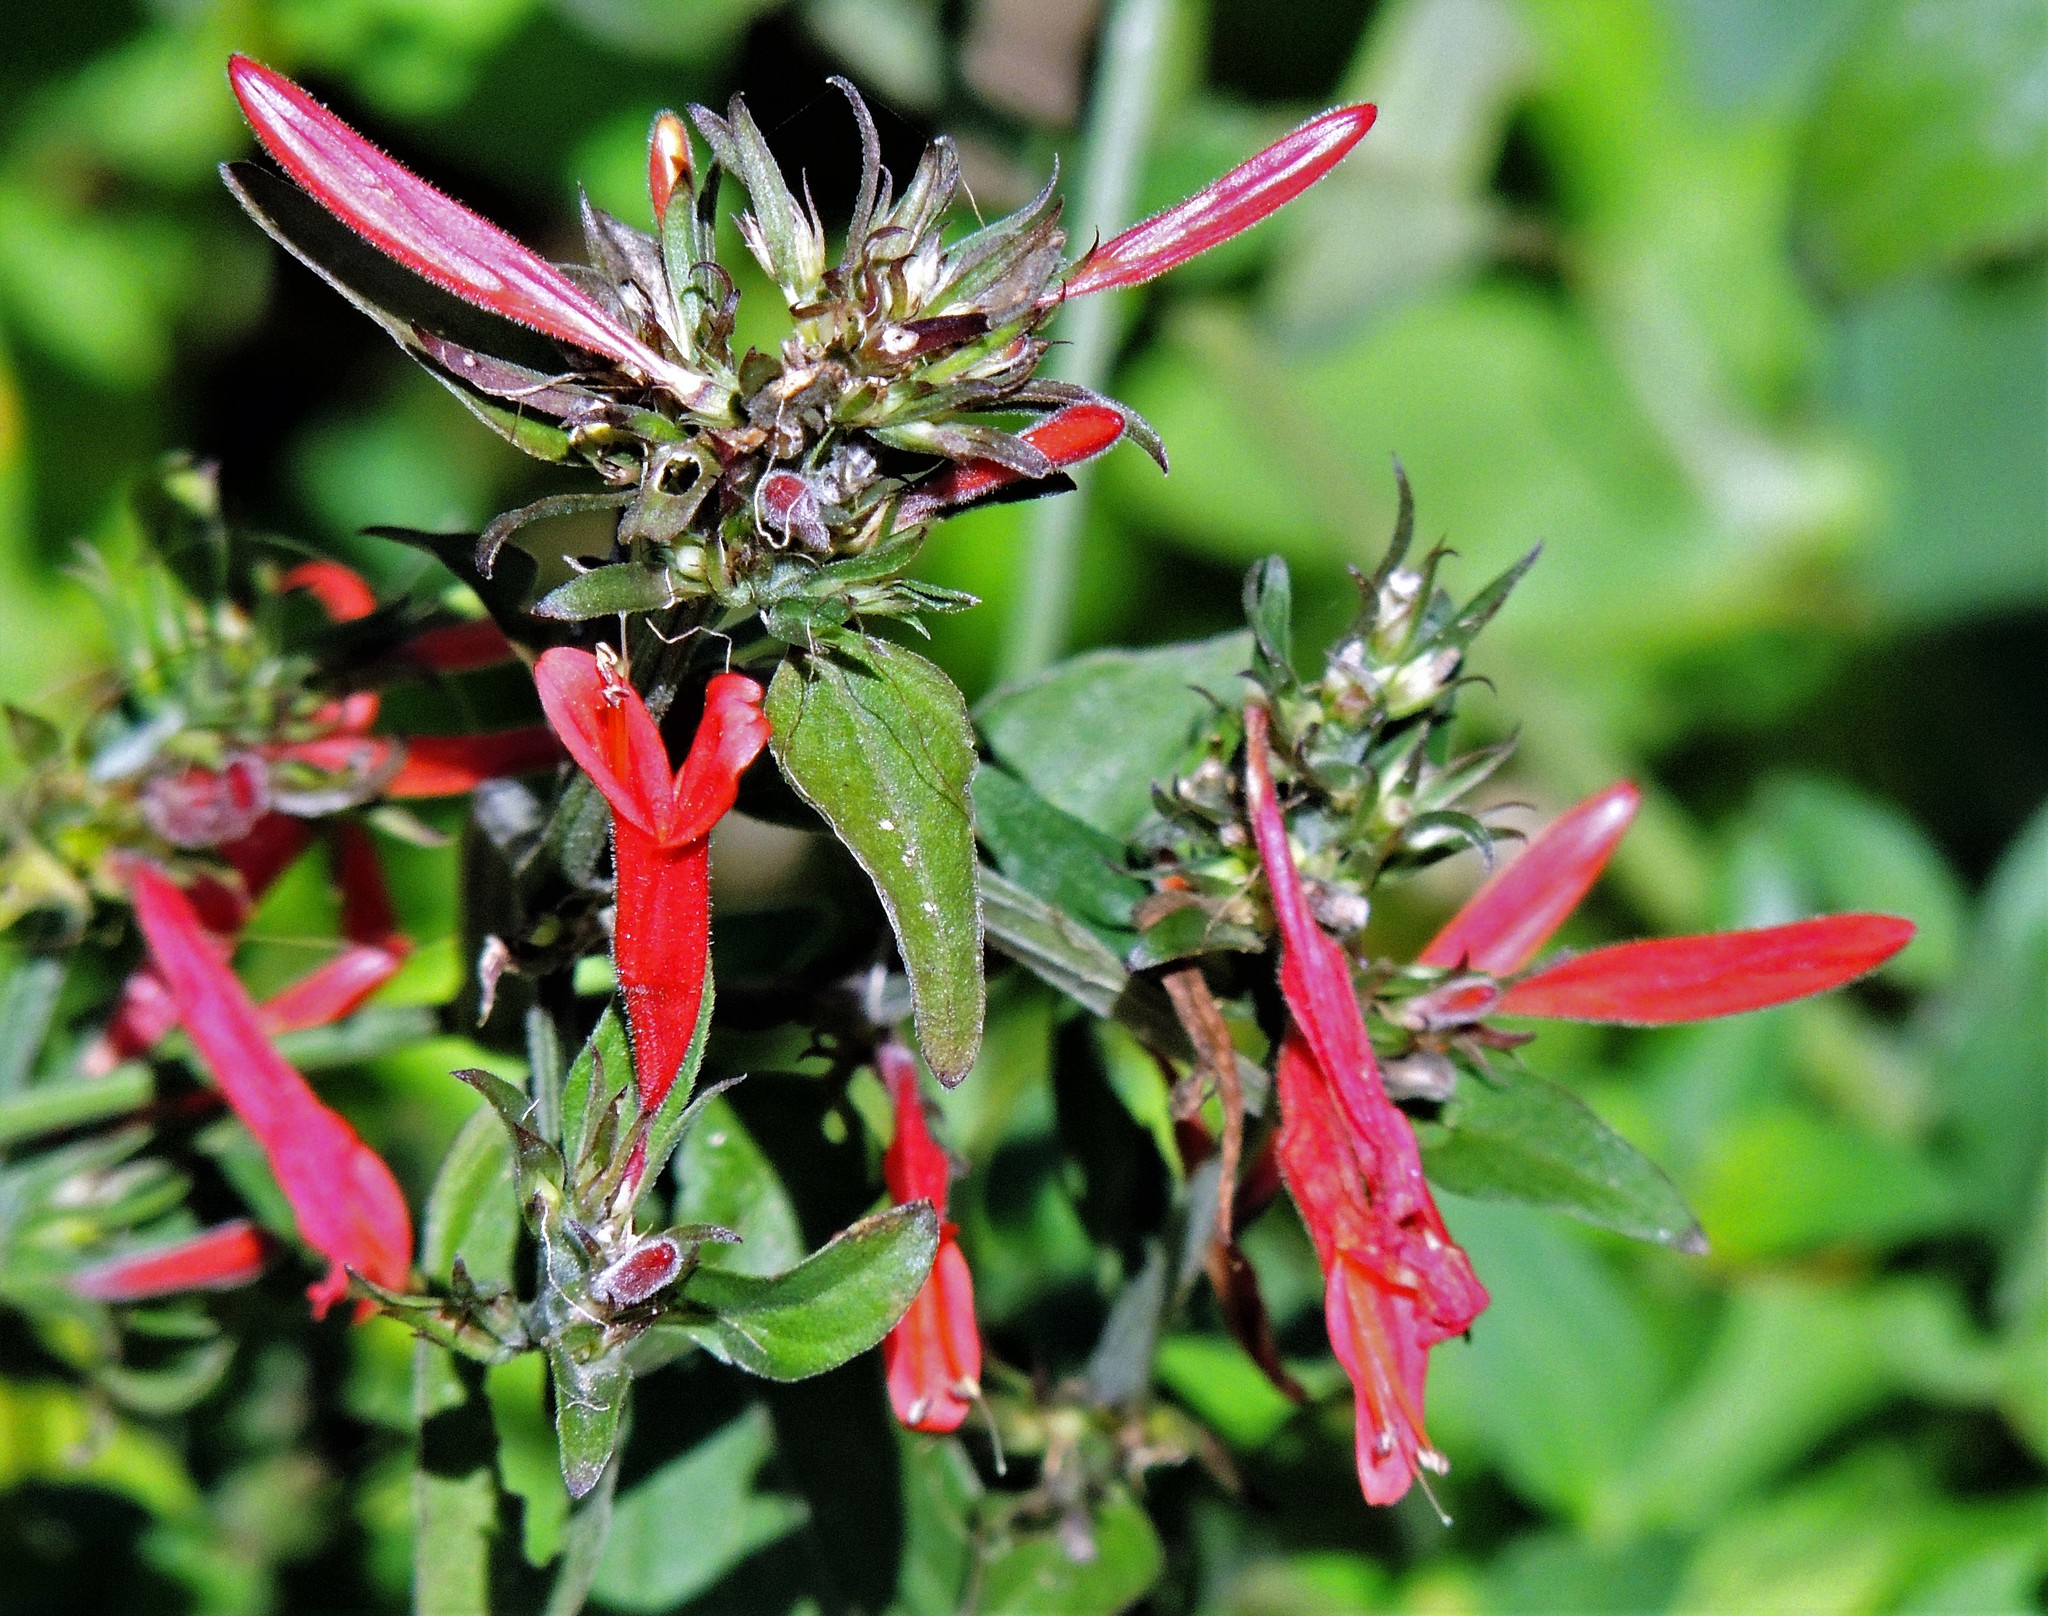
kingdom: Plantae
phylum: Tracheophyta
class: Magnoliopsida
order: Lamiales
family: Acanthaceae
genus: Dicliptera
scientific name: Dicliptera squarrosa
